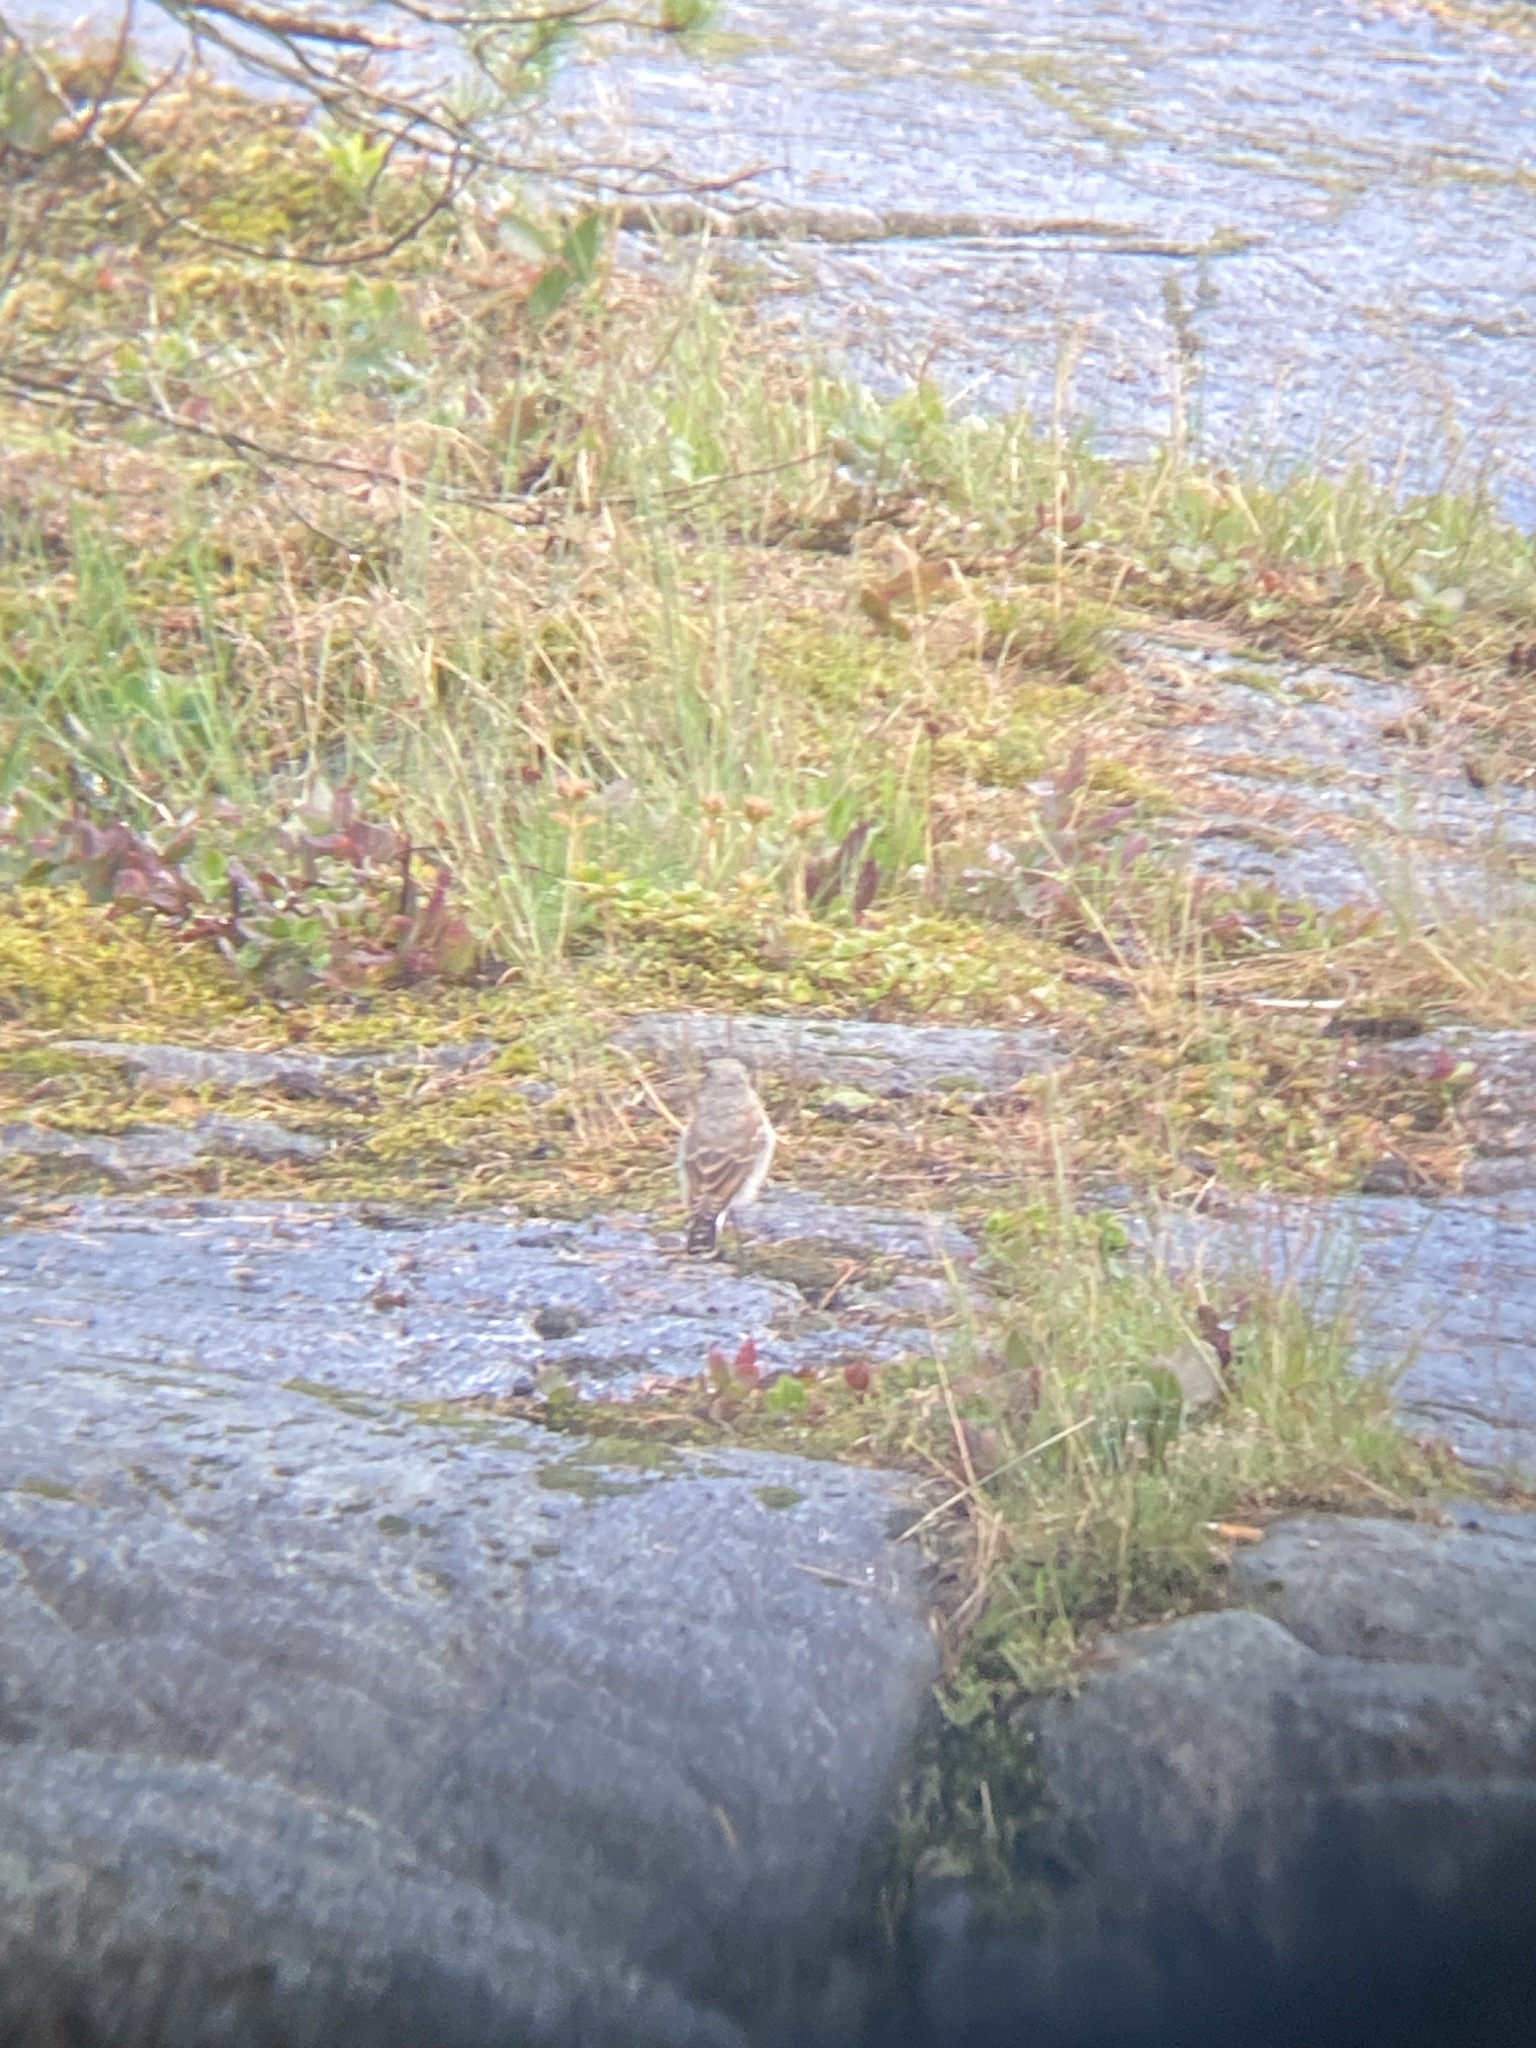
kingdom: Animalia
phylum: Chordata
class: Aves
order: Passeriformes
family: Muscicapidae
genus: Oenanthe
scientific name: Oenanthe oenanthe
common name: Northern wheatear
